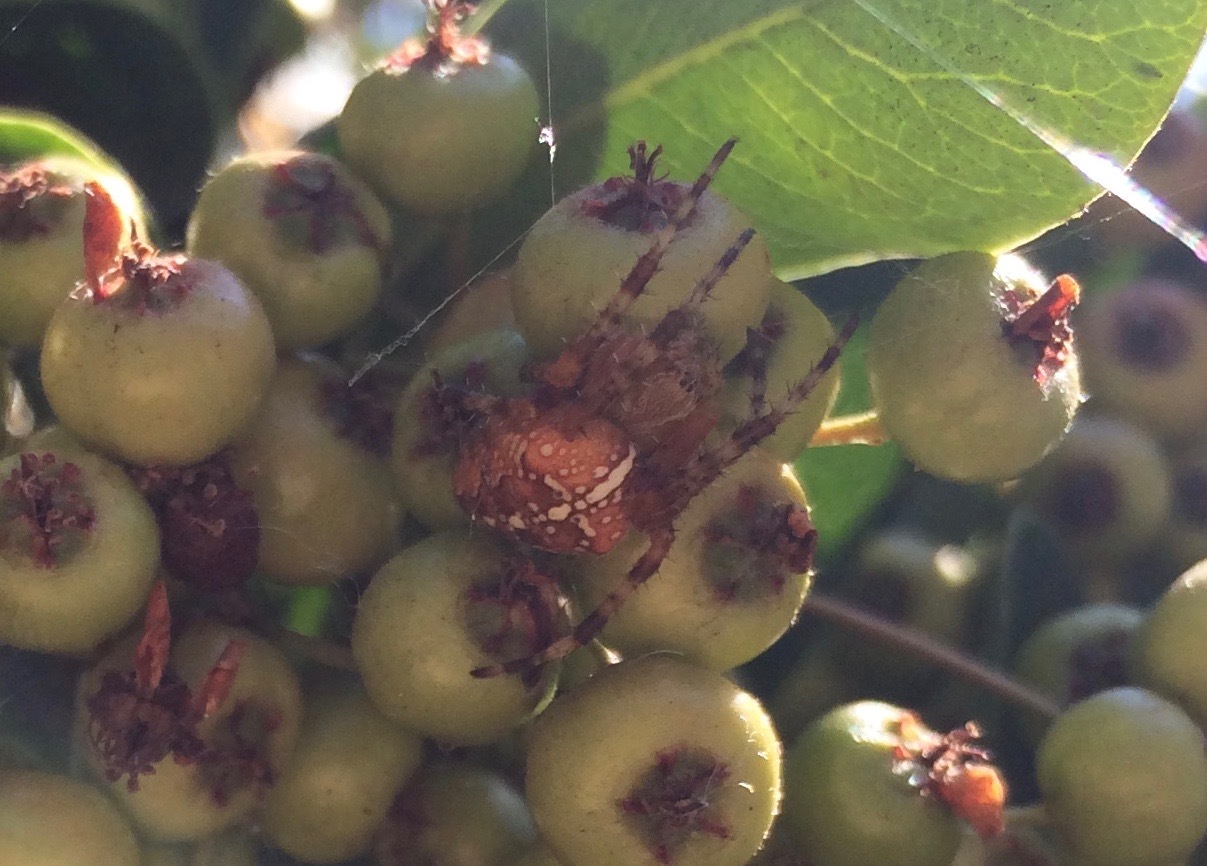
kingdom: Animalia
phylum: Arthropoda
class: Arachnida
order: Araneae
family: Araneidae
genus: Araneus
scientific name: Araneus diadematus
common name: Cross orbweaver
